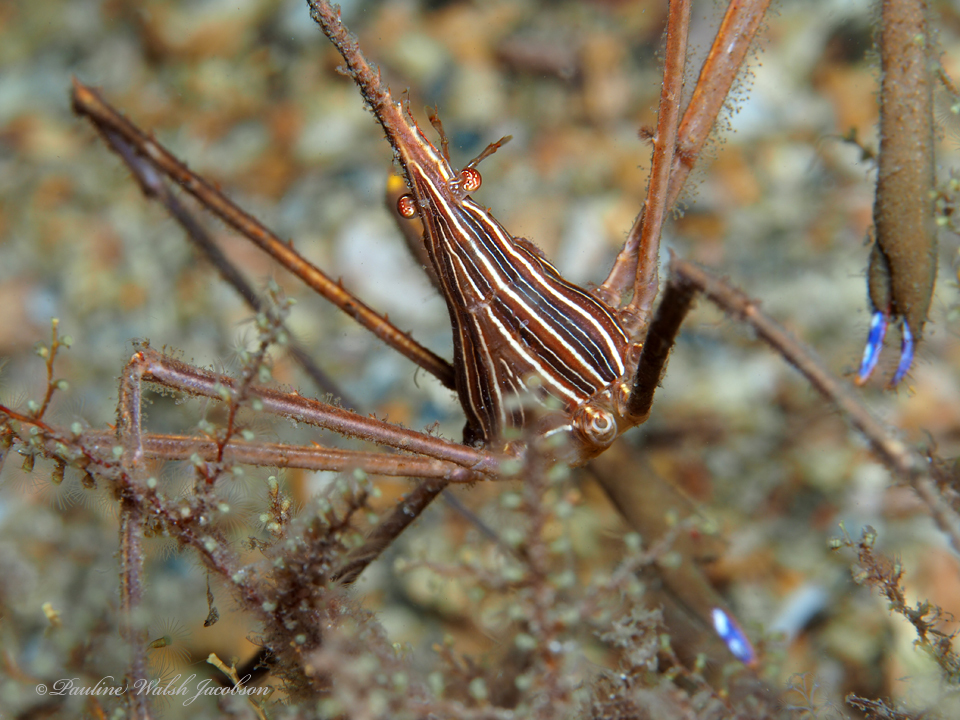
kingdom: Animalia
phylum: Arthropoda
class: Malacostraca
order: Decapoda
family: Inachoididae
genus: Stenorhynchus
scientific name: Stenorhynchus seticornis
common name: Arrow crab
